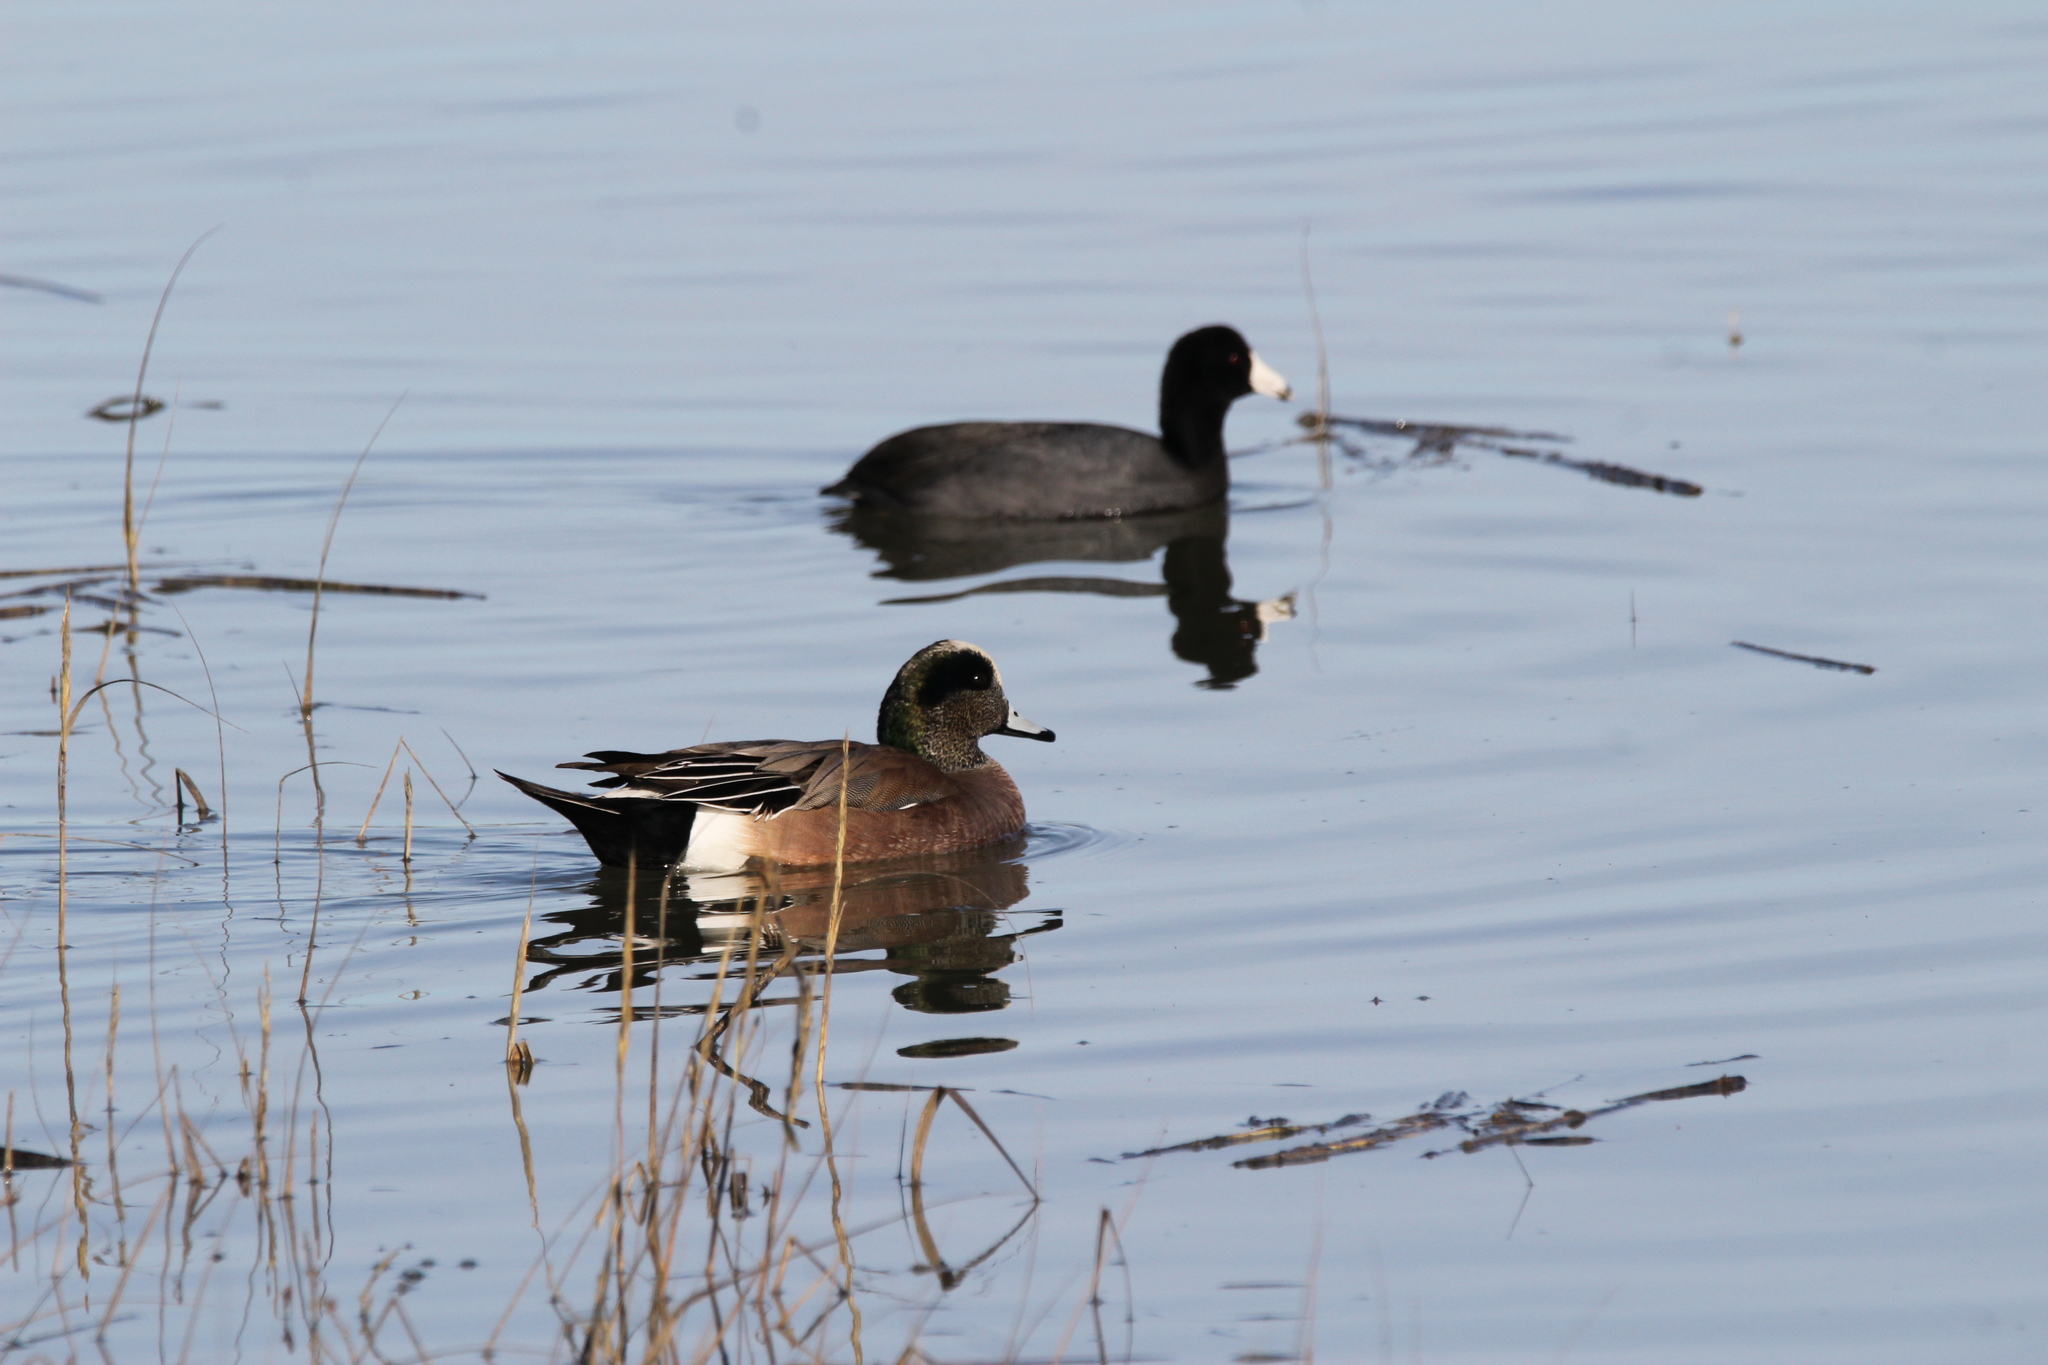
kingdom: Animalia
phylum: Chordata
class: Aves
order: Anseriformes
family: Anatidae
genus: Mareca
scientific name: Mareca americana
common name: American wigeon
